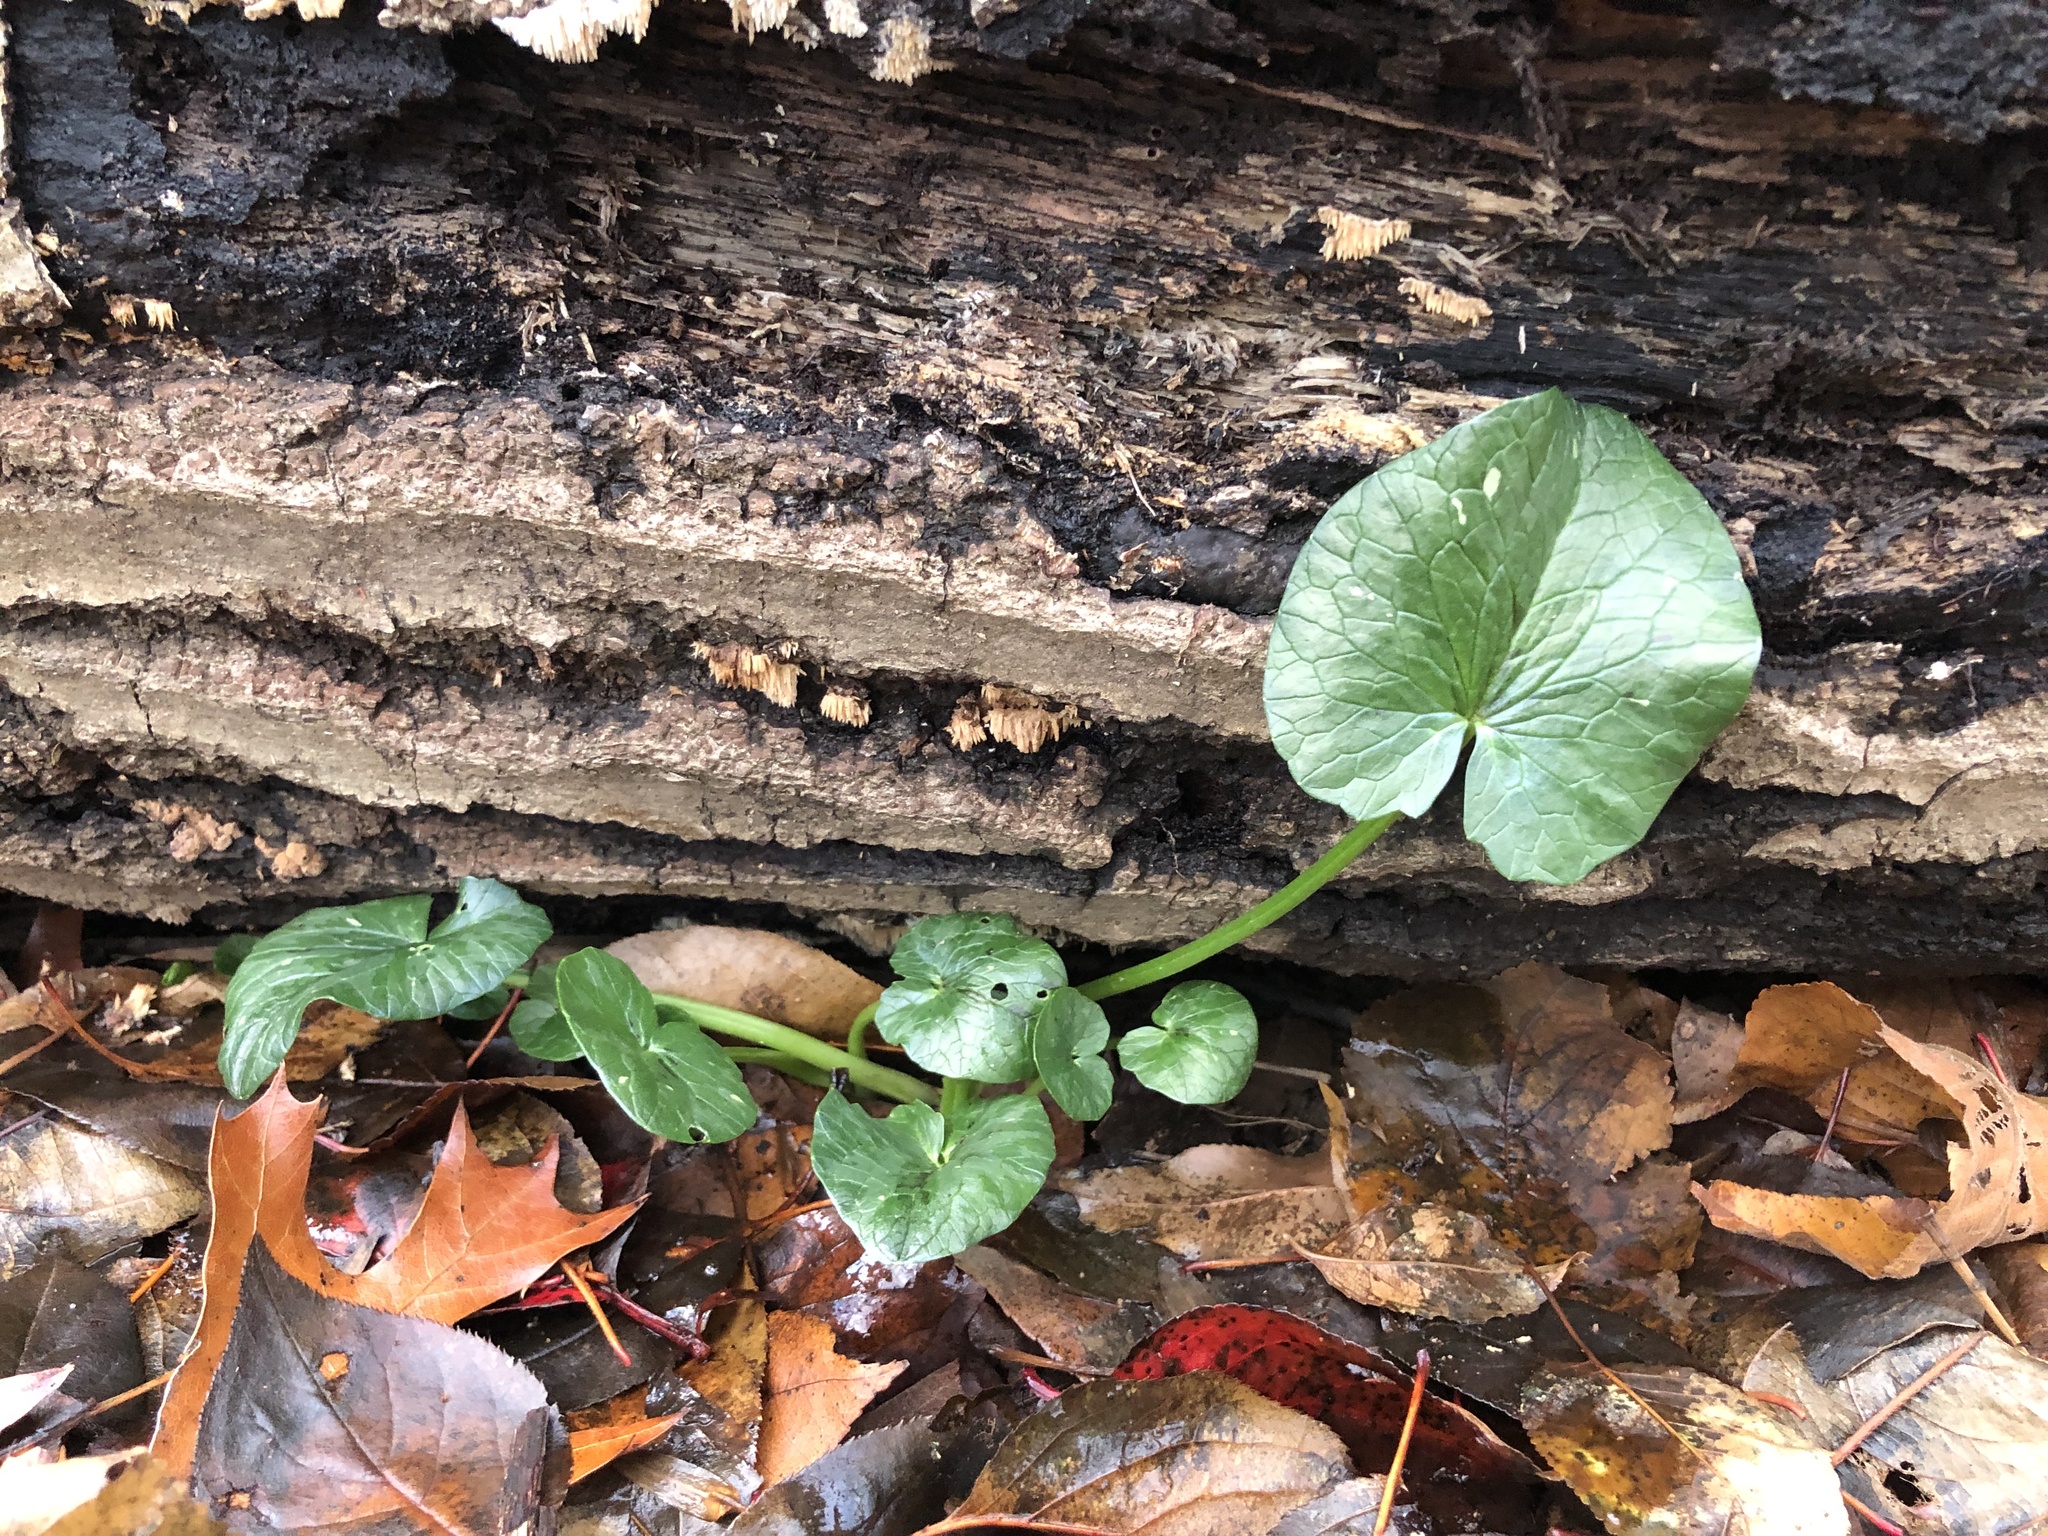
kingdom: Plantae
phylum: Tracheophyta
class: Magnoliopsida
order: Ranunculales
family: Ranunculaceae
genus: Ficaria
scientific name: Ficaria verna
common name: Lesser celandine
